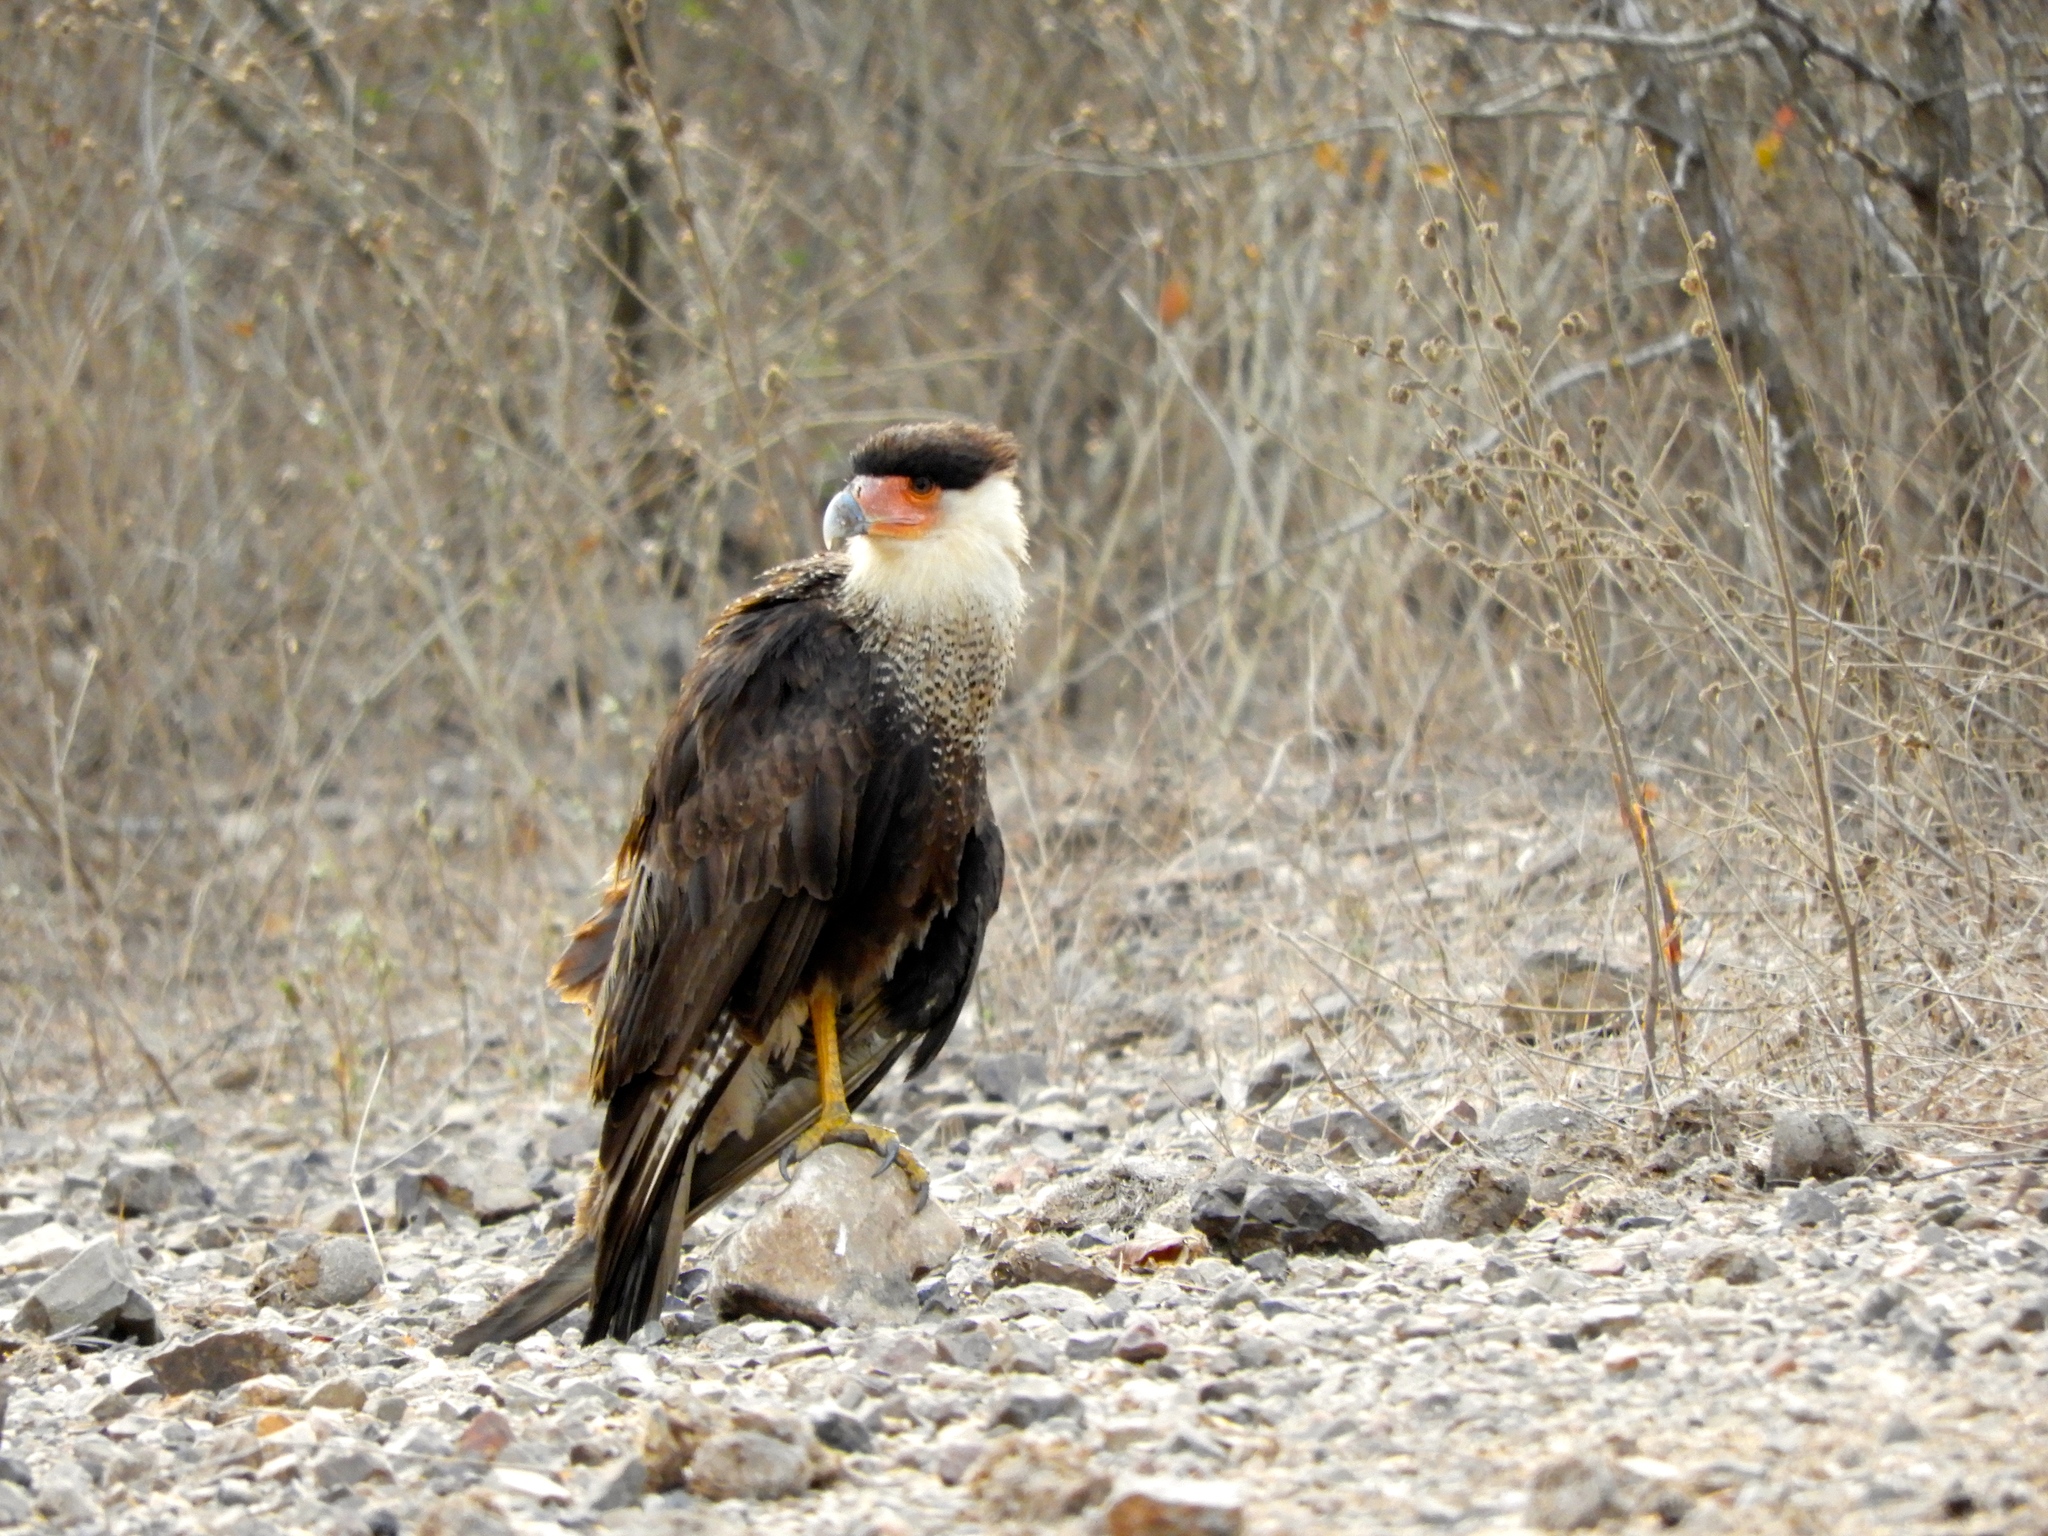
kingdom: Animalia
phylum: Chordata
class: Aves
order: Falconiformes
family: Falconidae
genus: Caracara
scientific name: Caracara plancus
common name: Southern caracara
